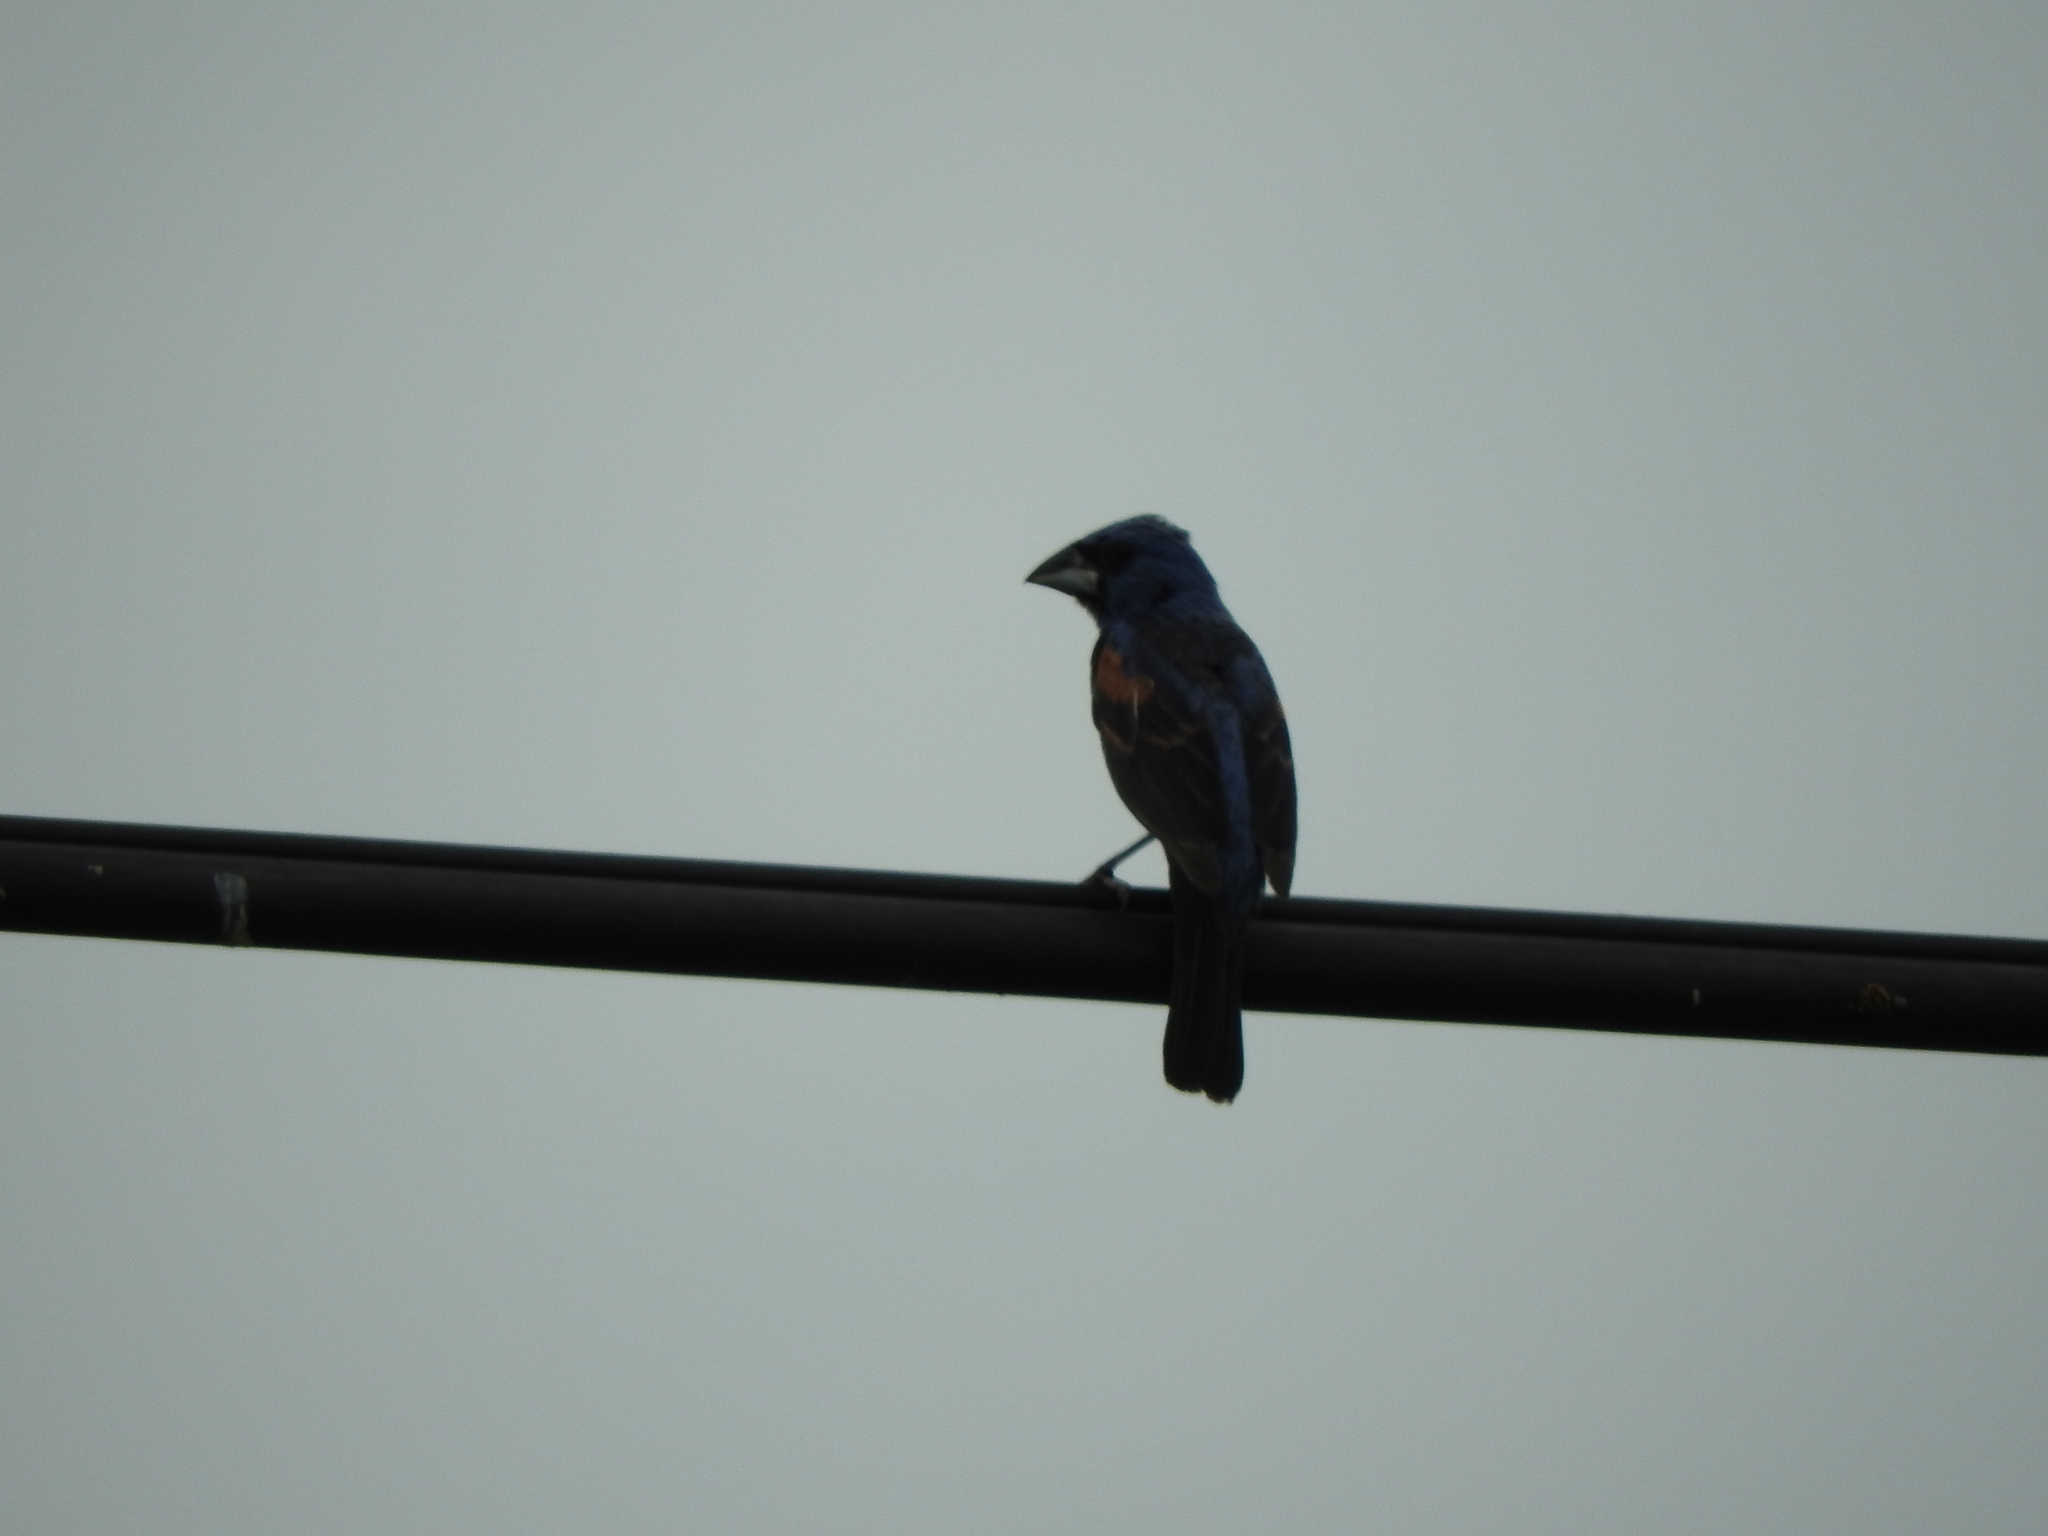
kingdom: Animalia
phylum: Chordata
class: Aves
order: Passeriformes
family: Cardinalidae
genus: Passerina
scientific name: Passerina caerulea
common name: Blue grosbeak
